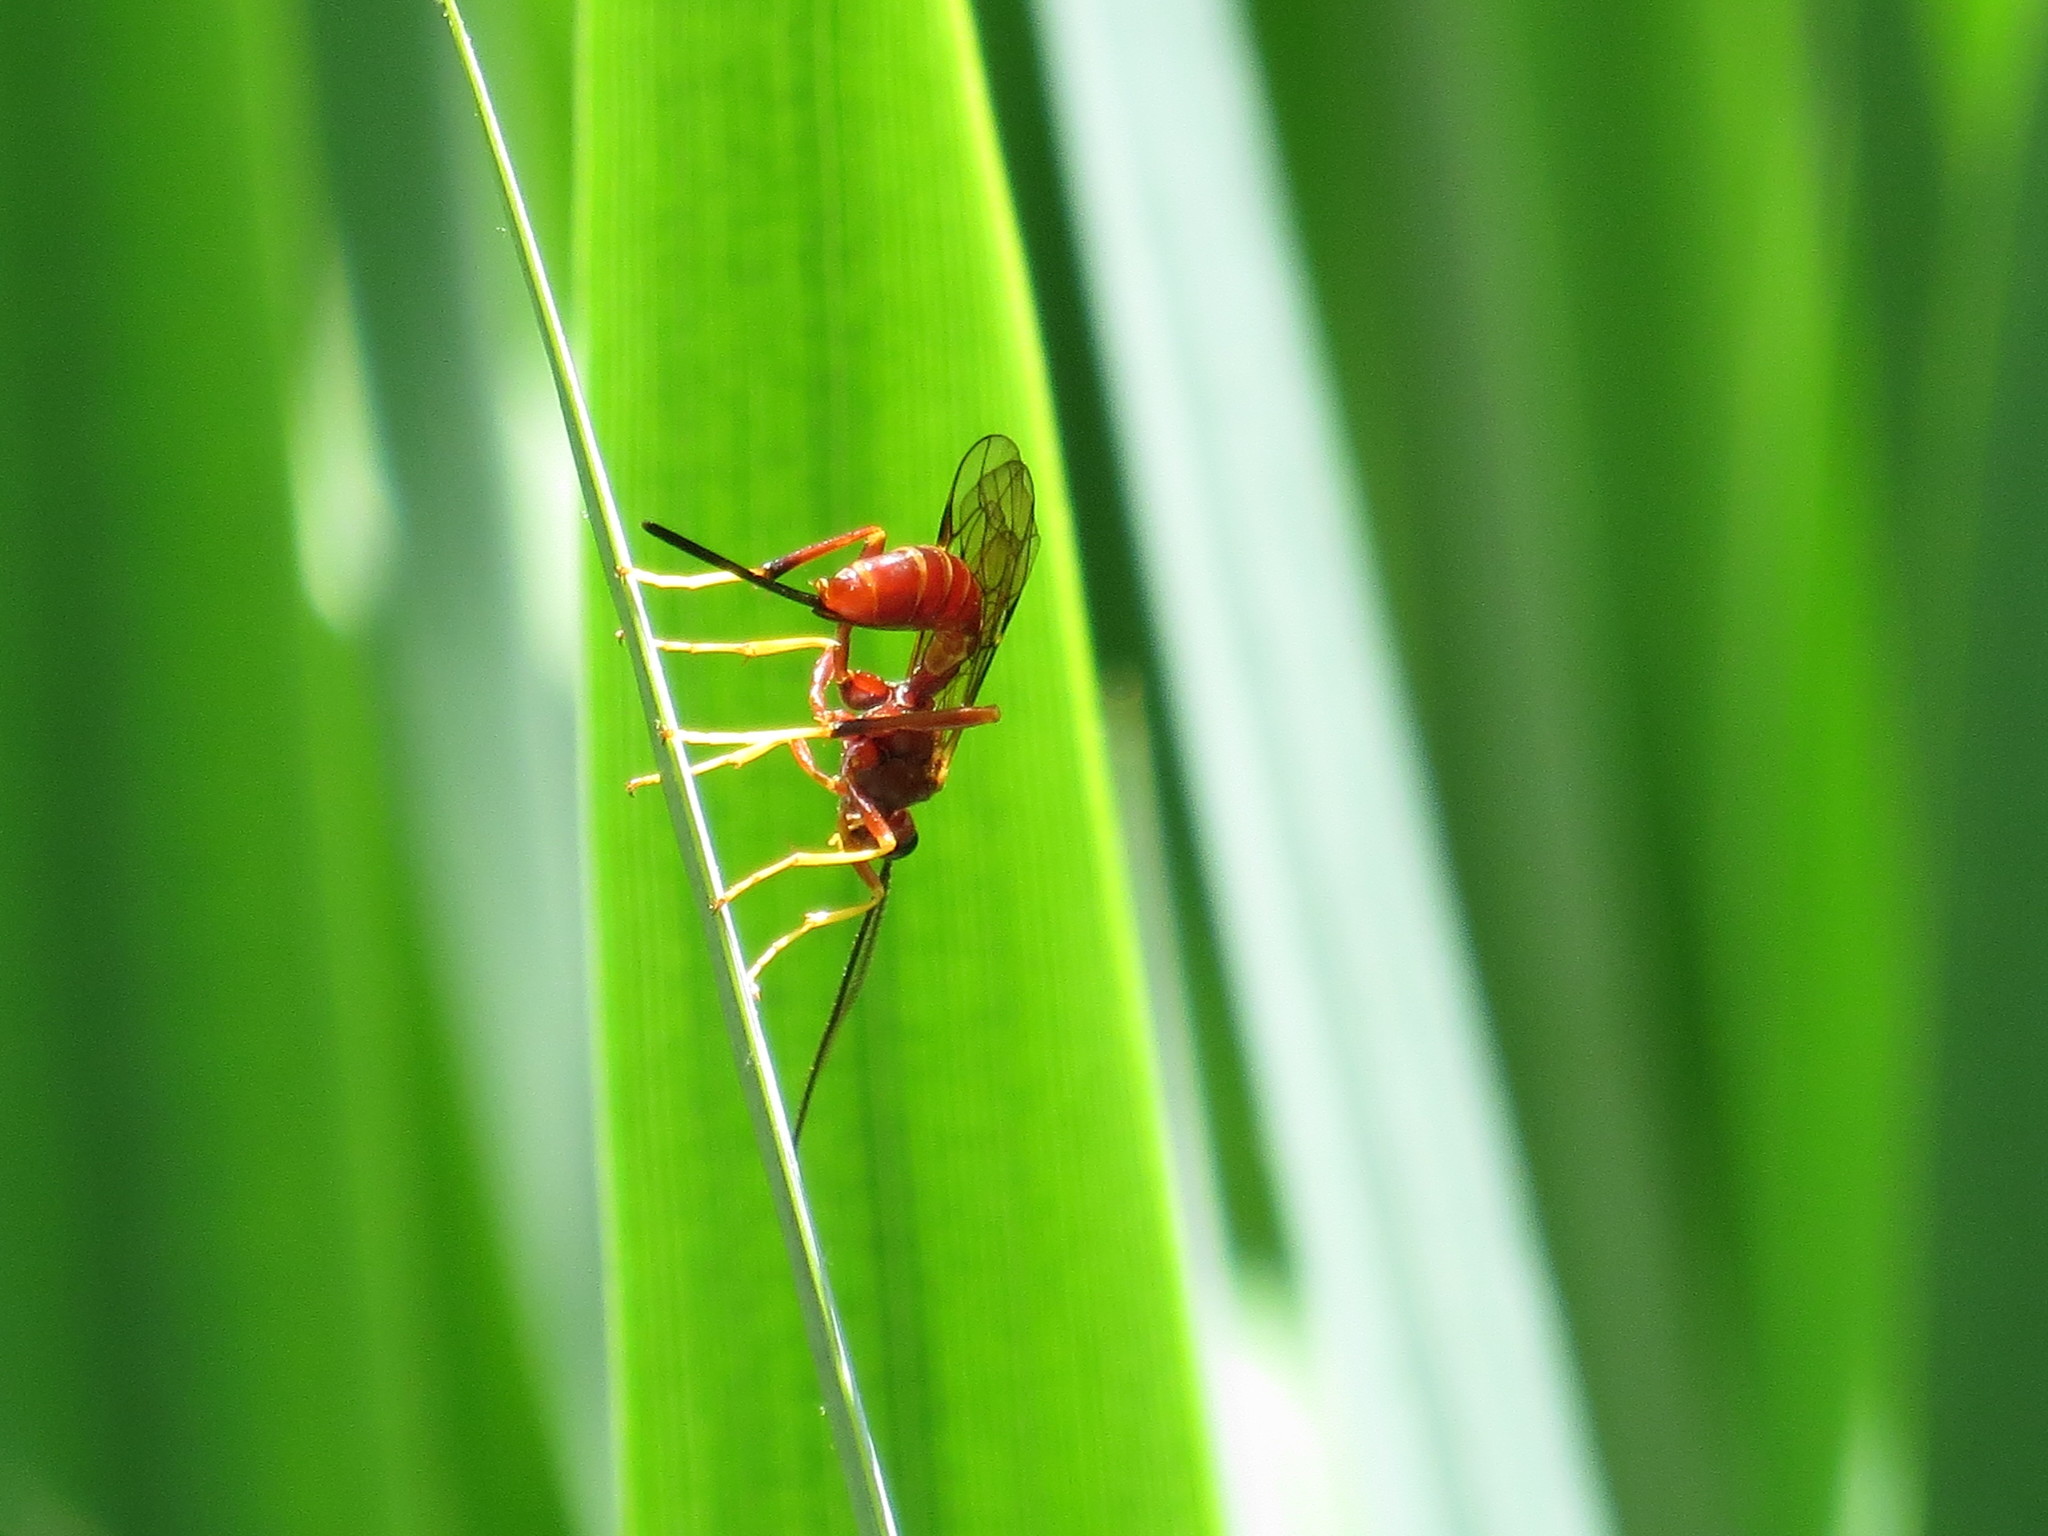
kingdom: Animalia
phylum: Arthropoda
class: Insecta
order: Hymenoptera
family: Ichneumonidae
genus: Coleocentrus
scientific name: Coleocentrus rufus
